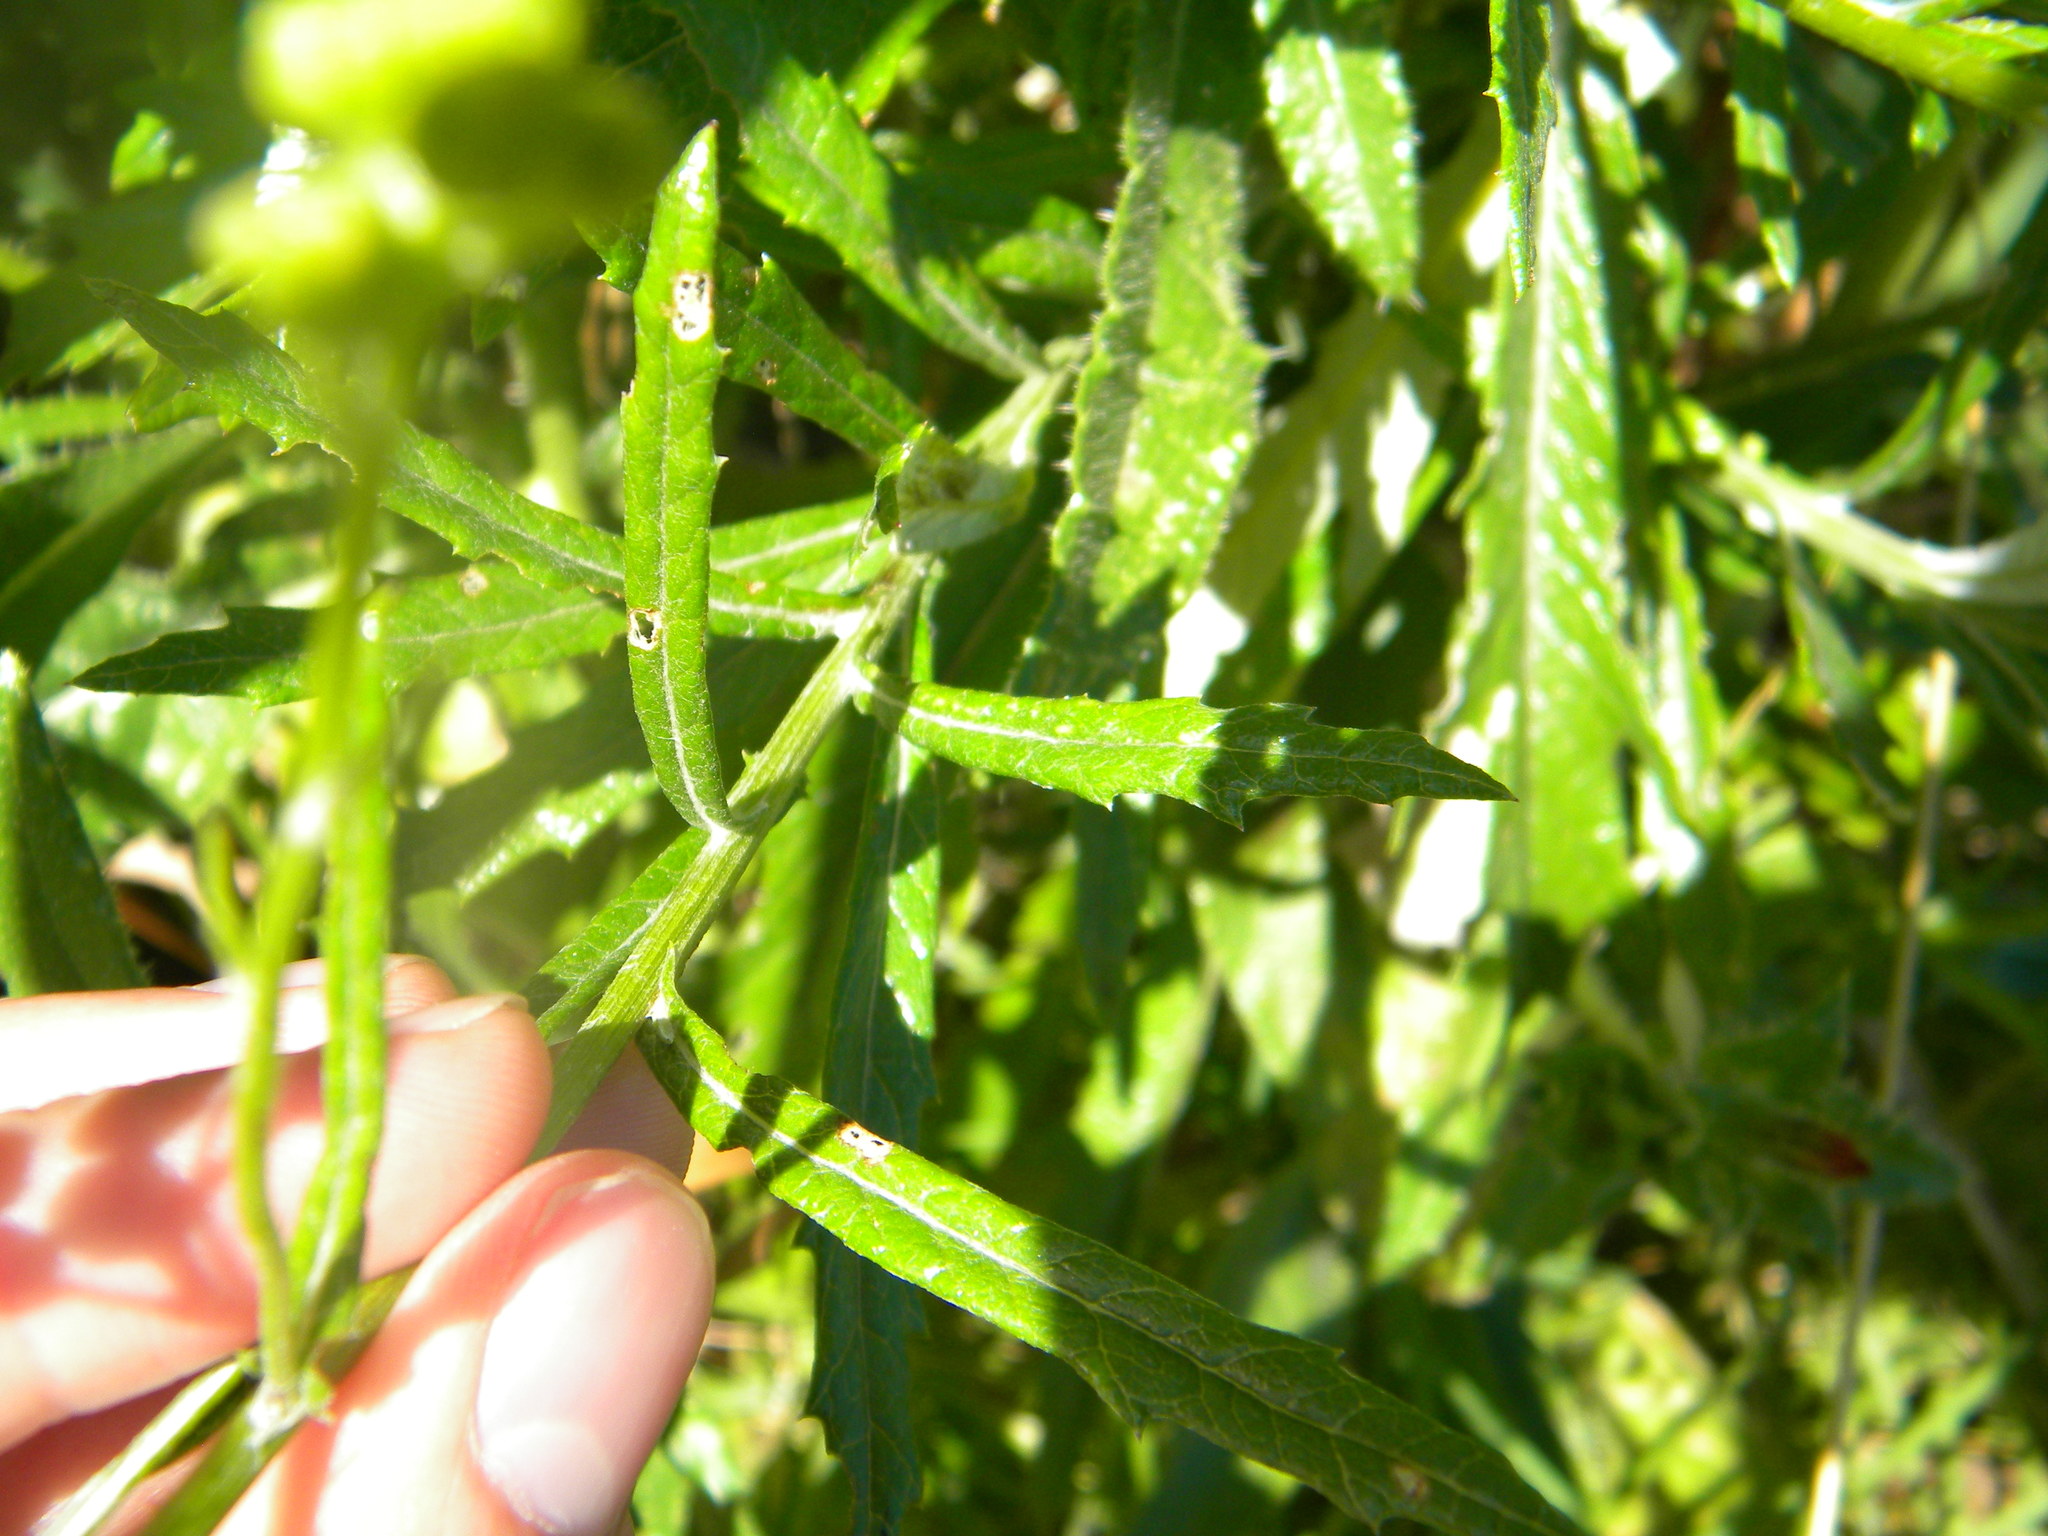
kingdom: Plantae
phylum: Tracheophyta
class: Magnoliopsida
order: Asterales
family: Asteraceae
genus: Senecio
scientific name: Senecio pterophorus
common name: Shoddy ragwort
